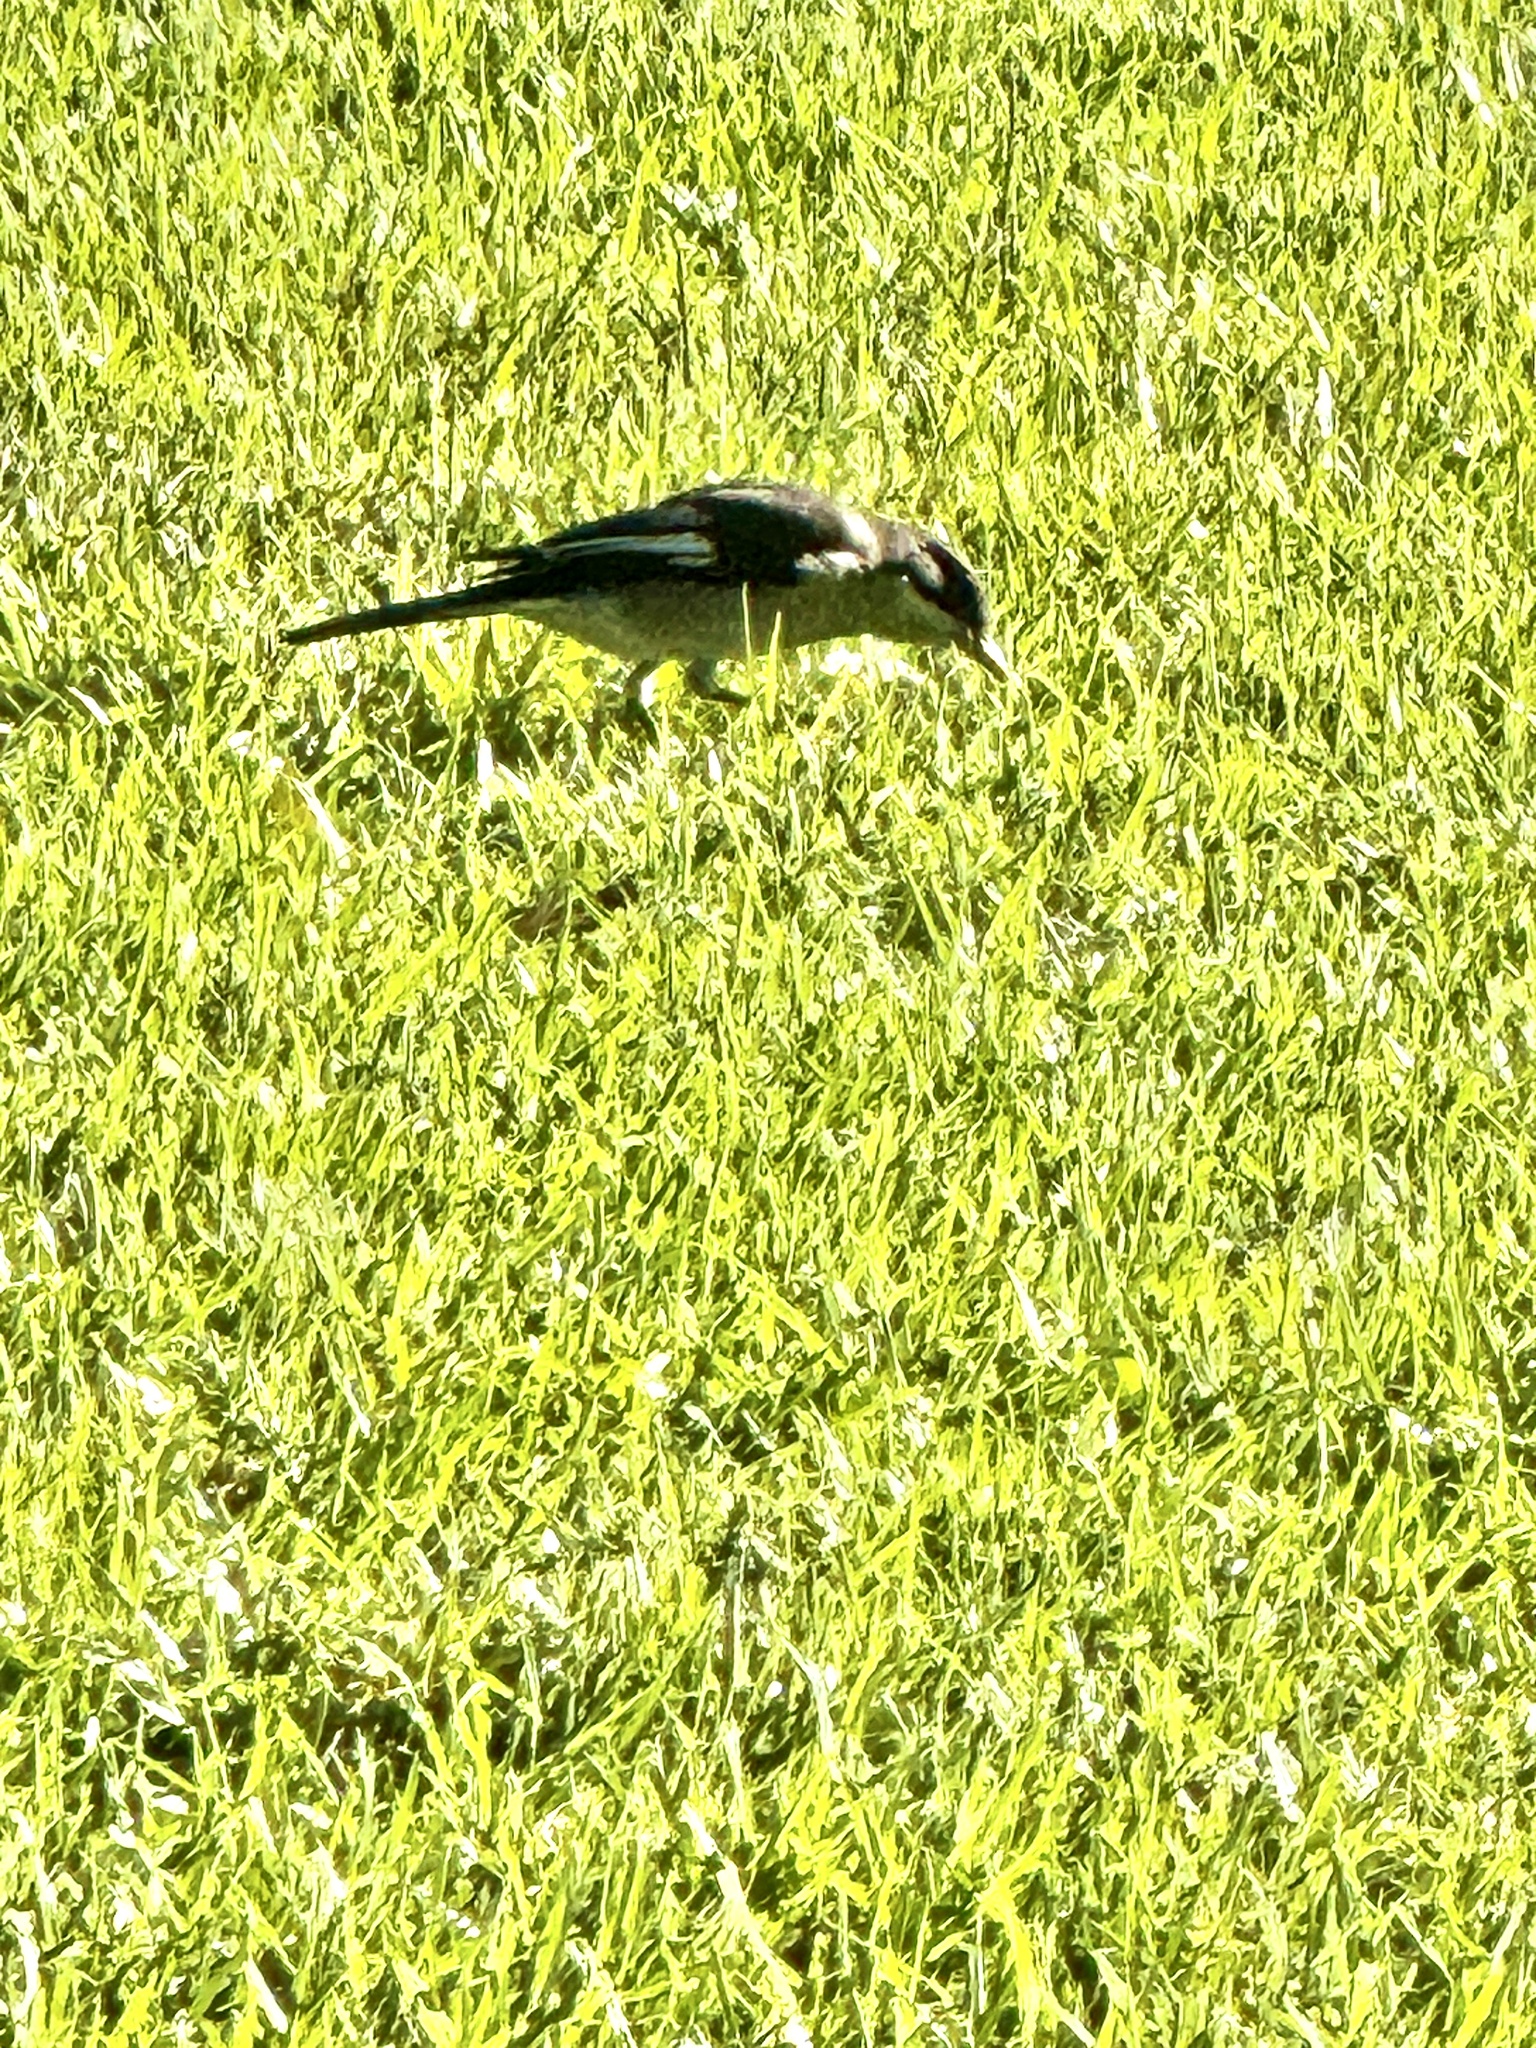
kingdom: Animalia
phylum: Chordata
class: Aves
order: Passeriformes
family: Muscicapidae
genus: Sigelus
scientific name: Sigelus silens
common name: Fiscal flycatcher
